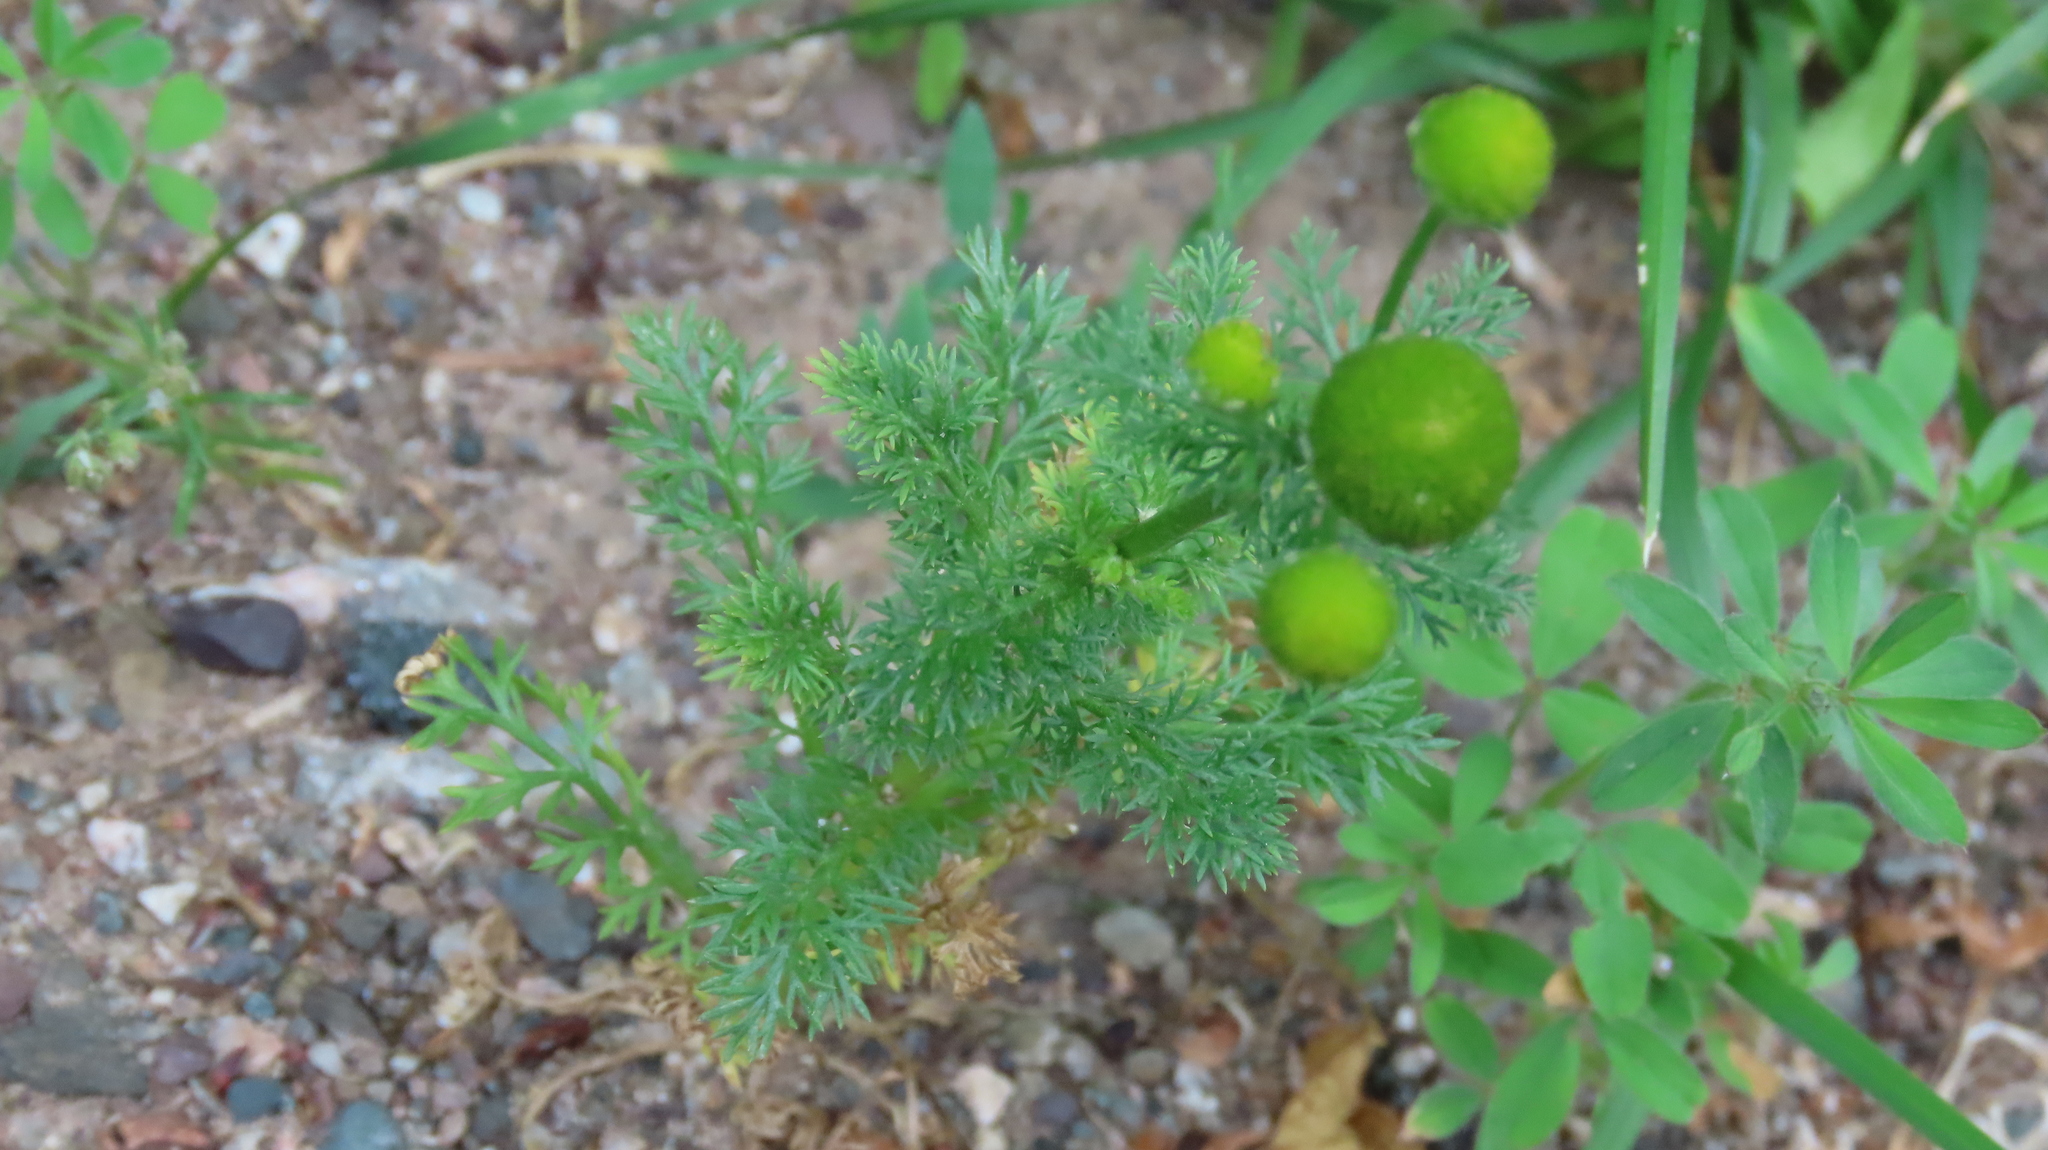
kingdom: Plantae
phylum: Tracheophyta
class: Magnoliopsida
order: Asterales
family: Asteraceae
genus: Matricaria
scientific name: Matricaria discoidea
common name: Disc mayweed
